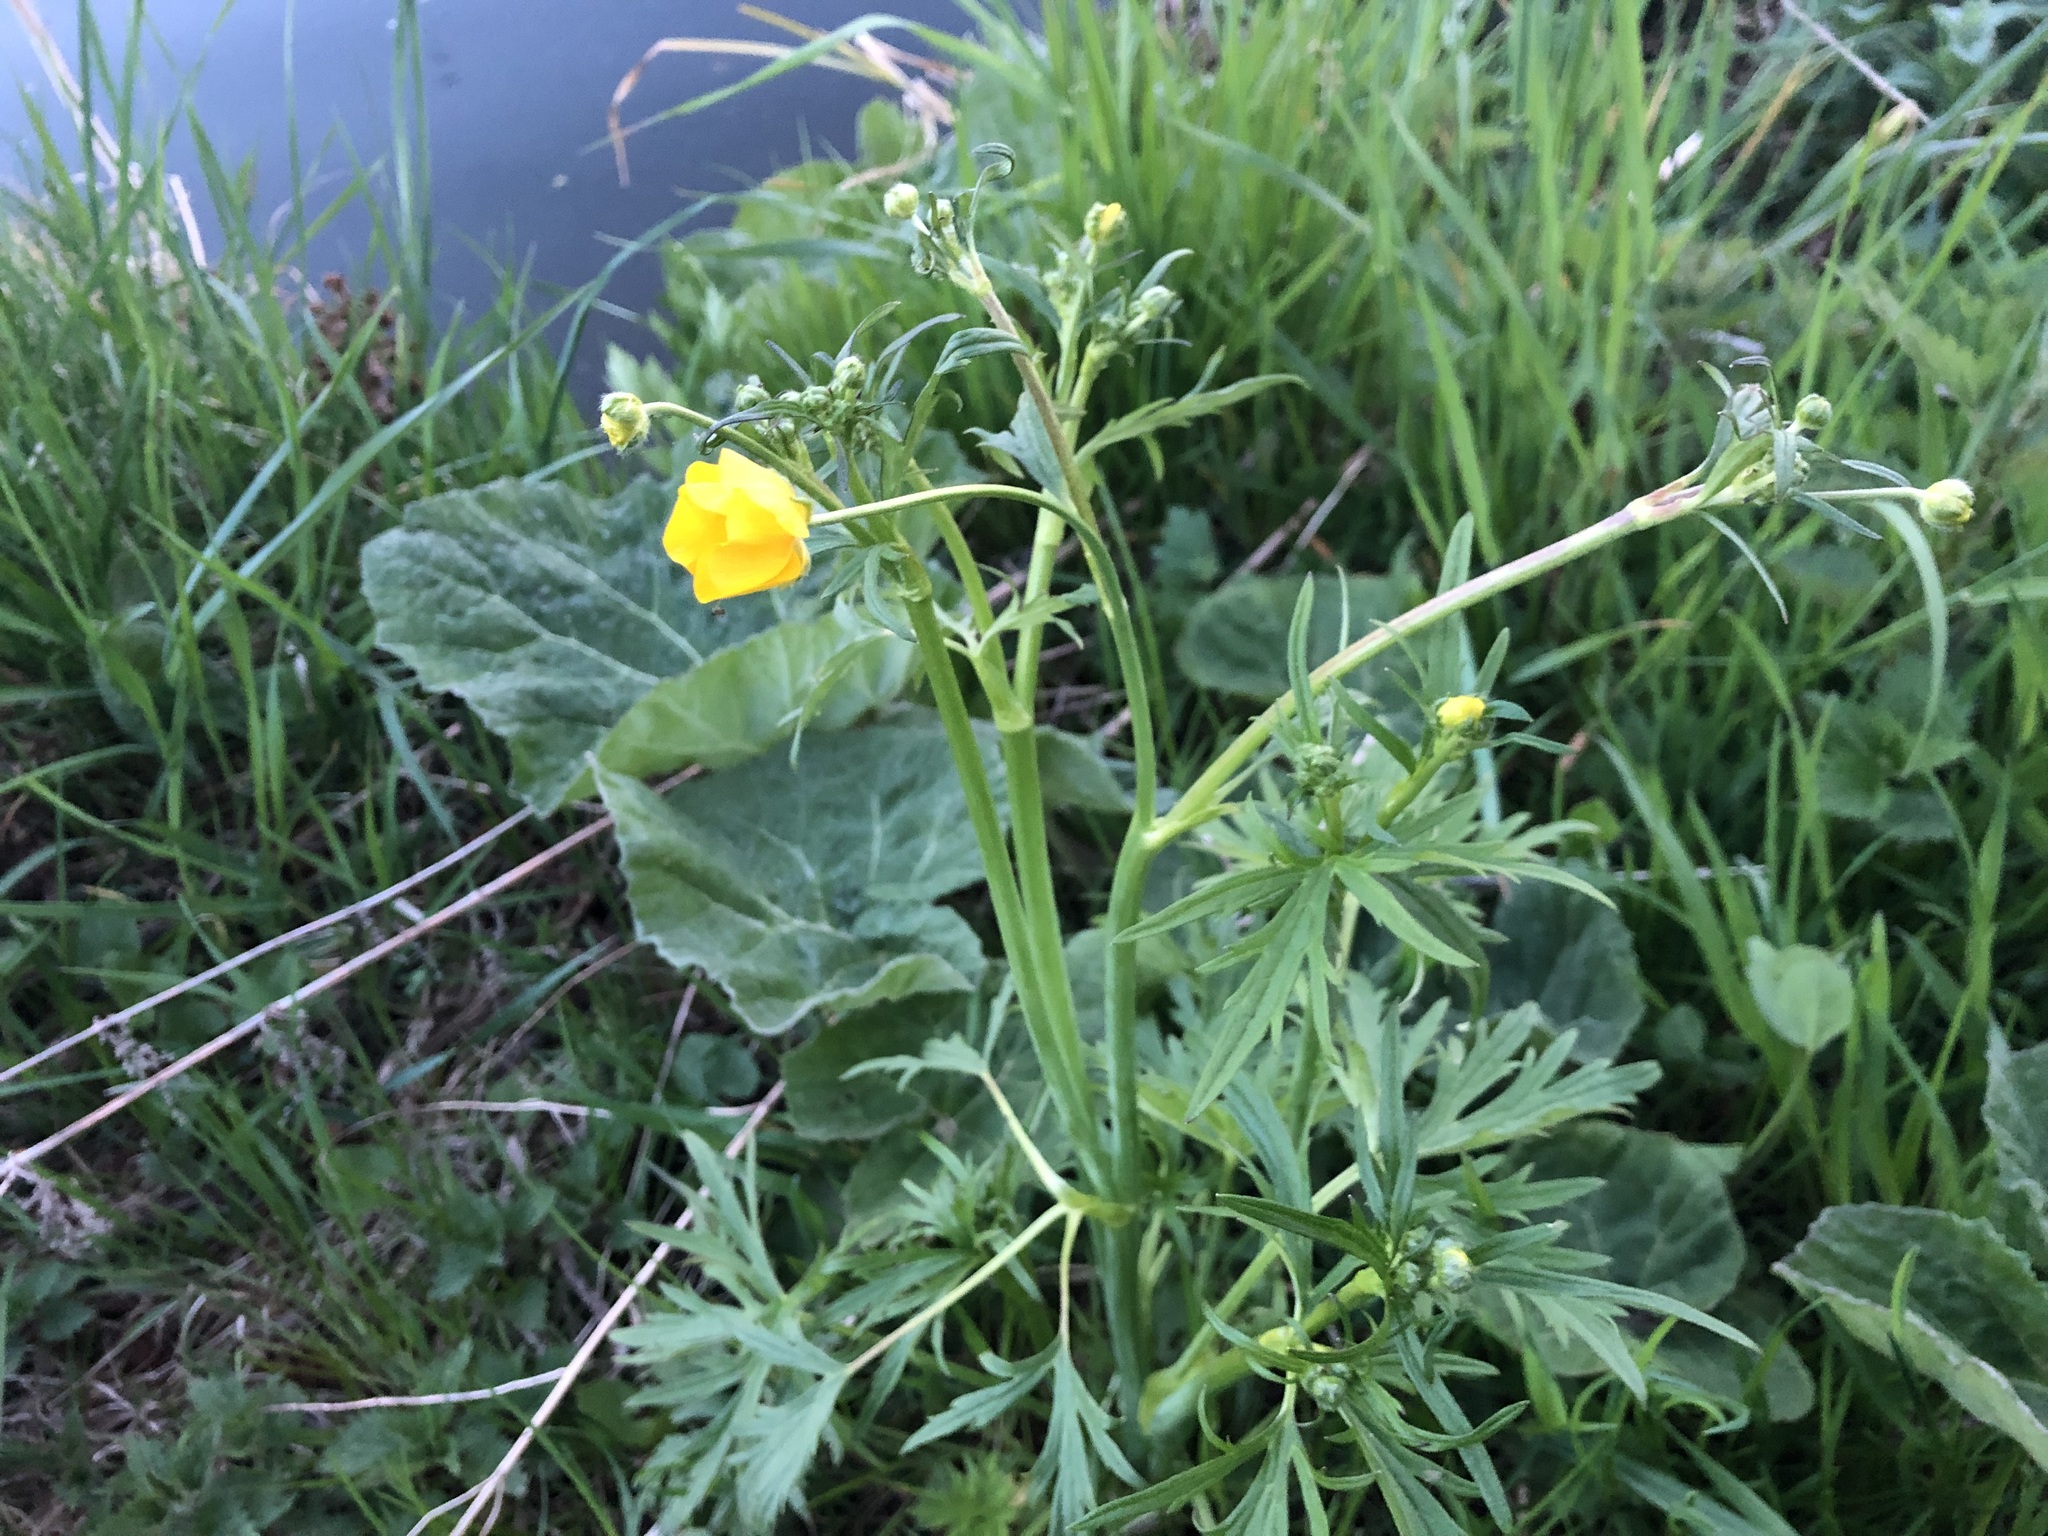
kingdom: Plantae
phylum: Tracheophyta
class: Magnoliopsida
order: Ranunculales
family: Ranunculaceae
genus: Ranunculus
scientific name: Ranunculus acris
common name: Meadow buttercup
